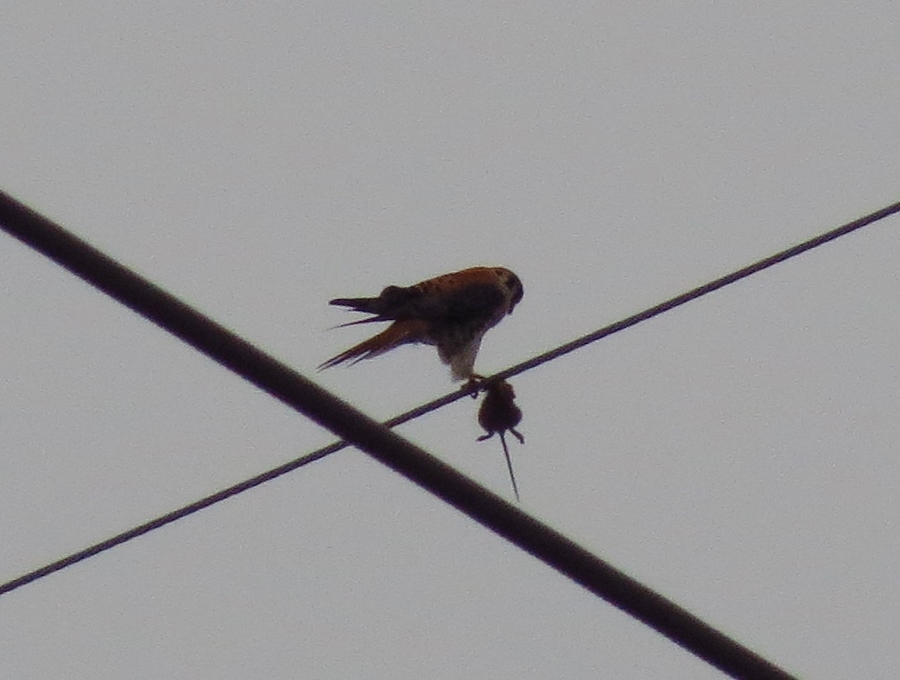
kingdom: Animalia
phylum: Chordata
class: Aves
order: Falconiformes
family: Falconidae
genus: Falco
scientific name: Falco sparverius
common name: American kestrel
